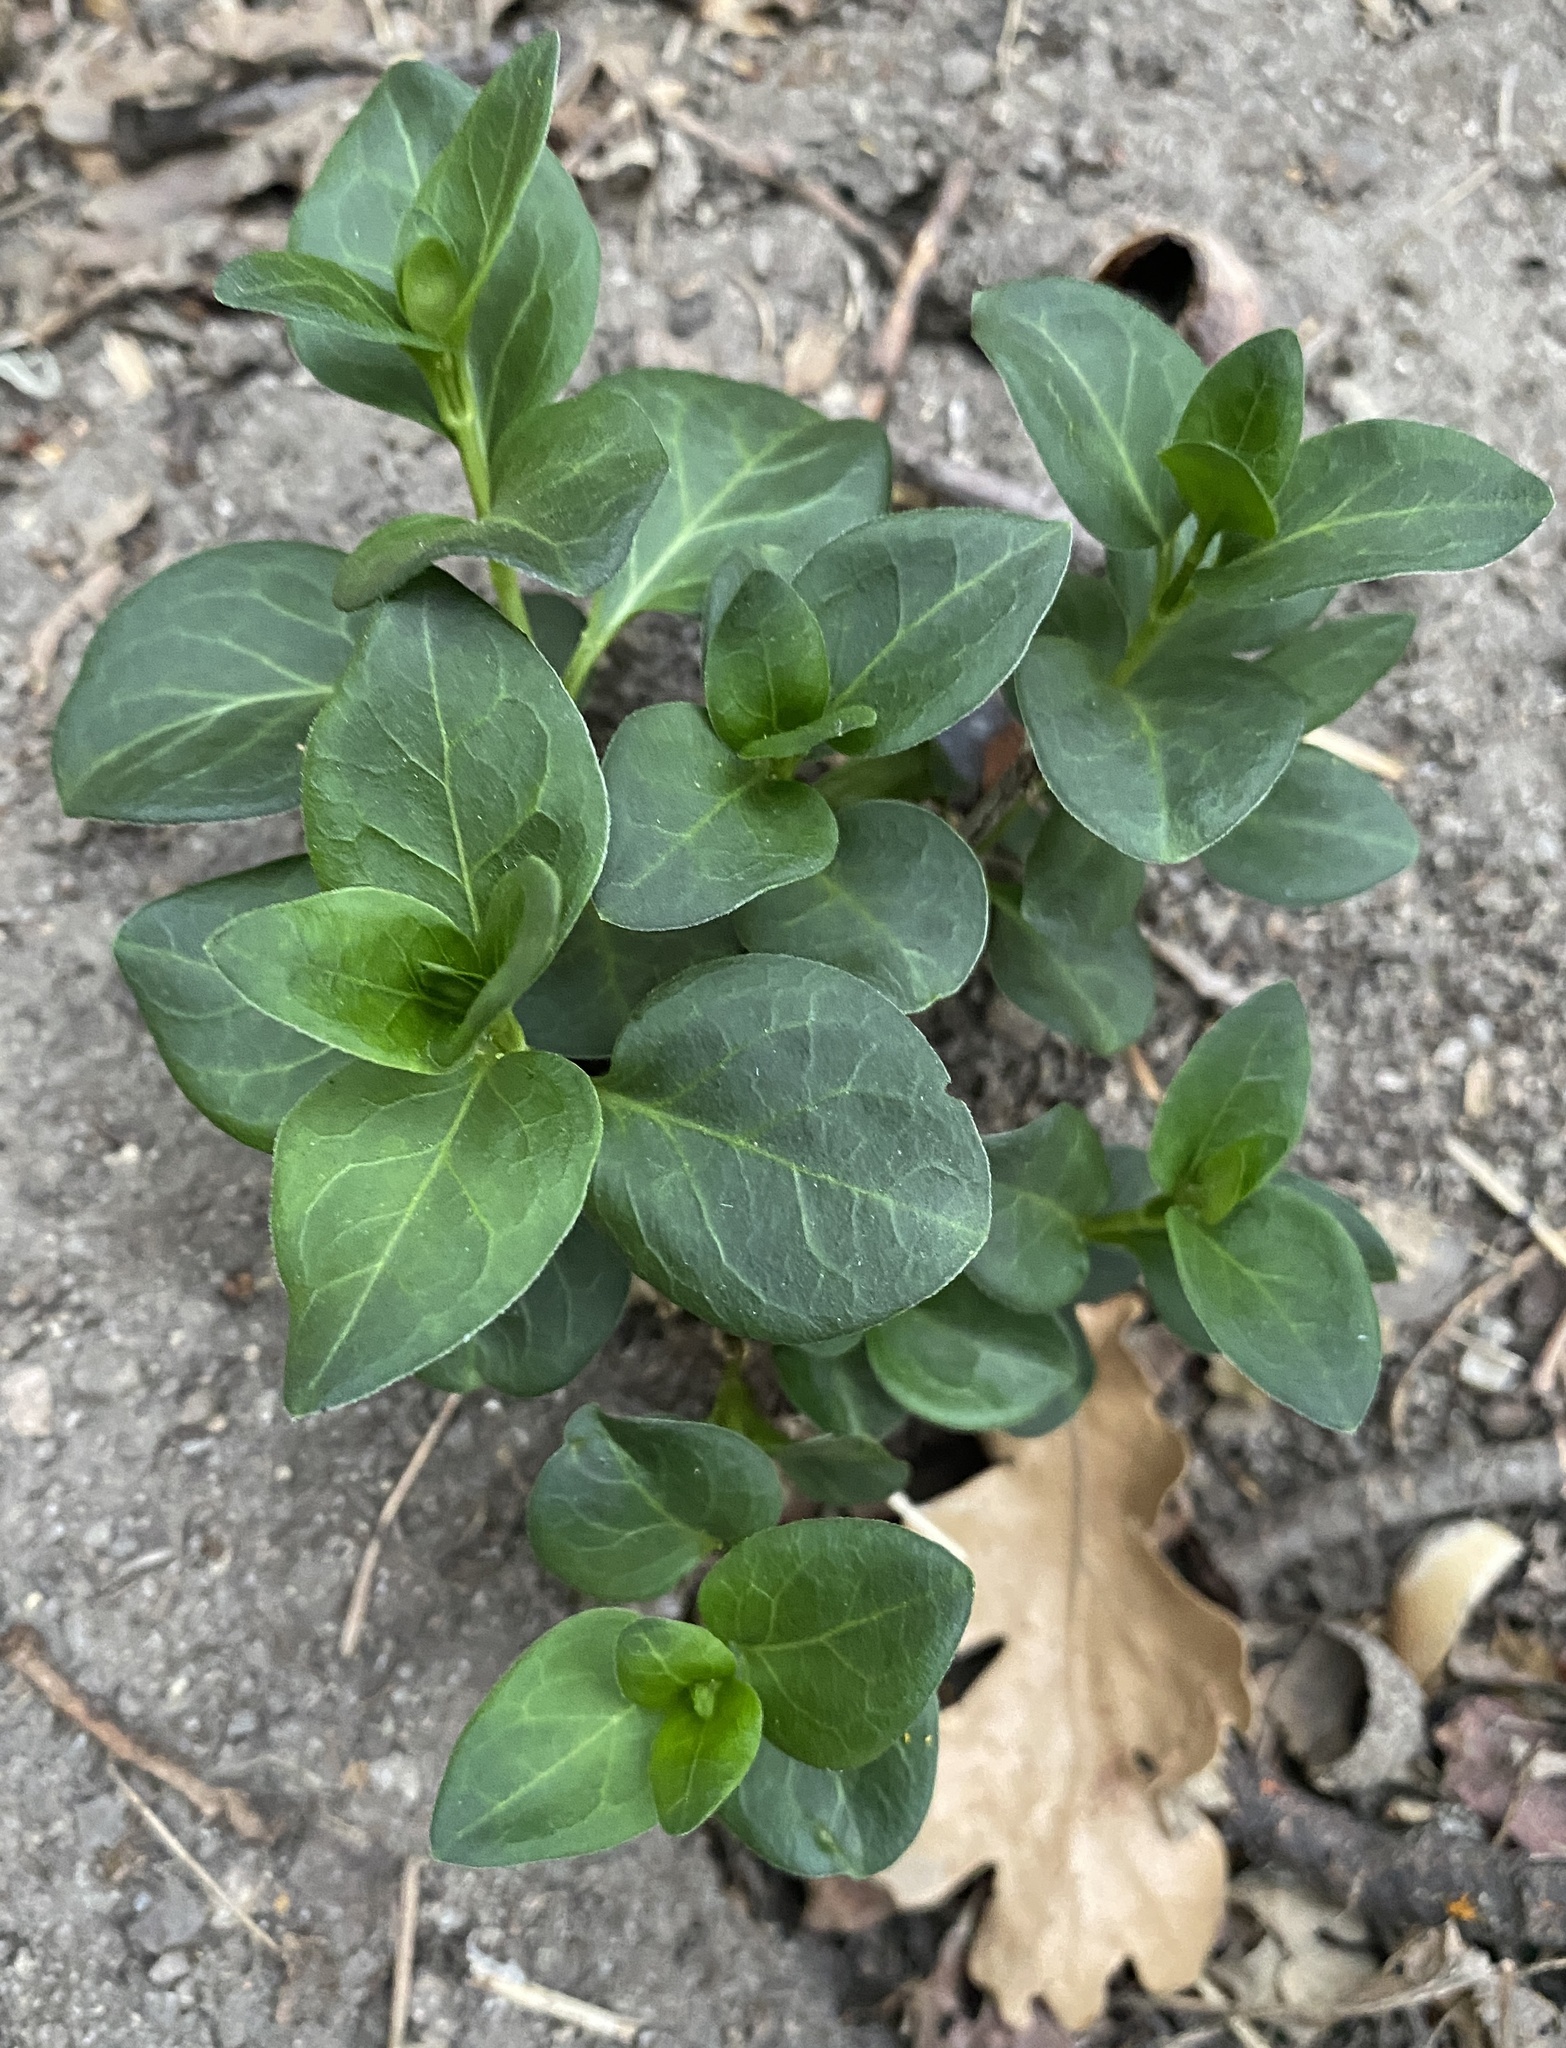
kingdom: Plantae
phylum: Tracheophyta
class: Magnoliopsida
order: Gentianales
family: Apocynaceae
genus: Vinca
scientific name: Vinca major
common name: Greater periwinkle
